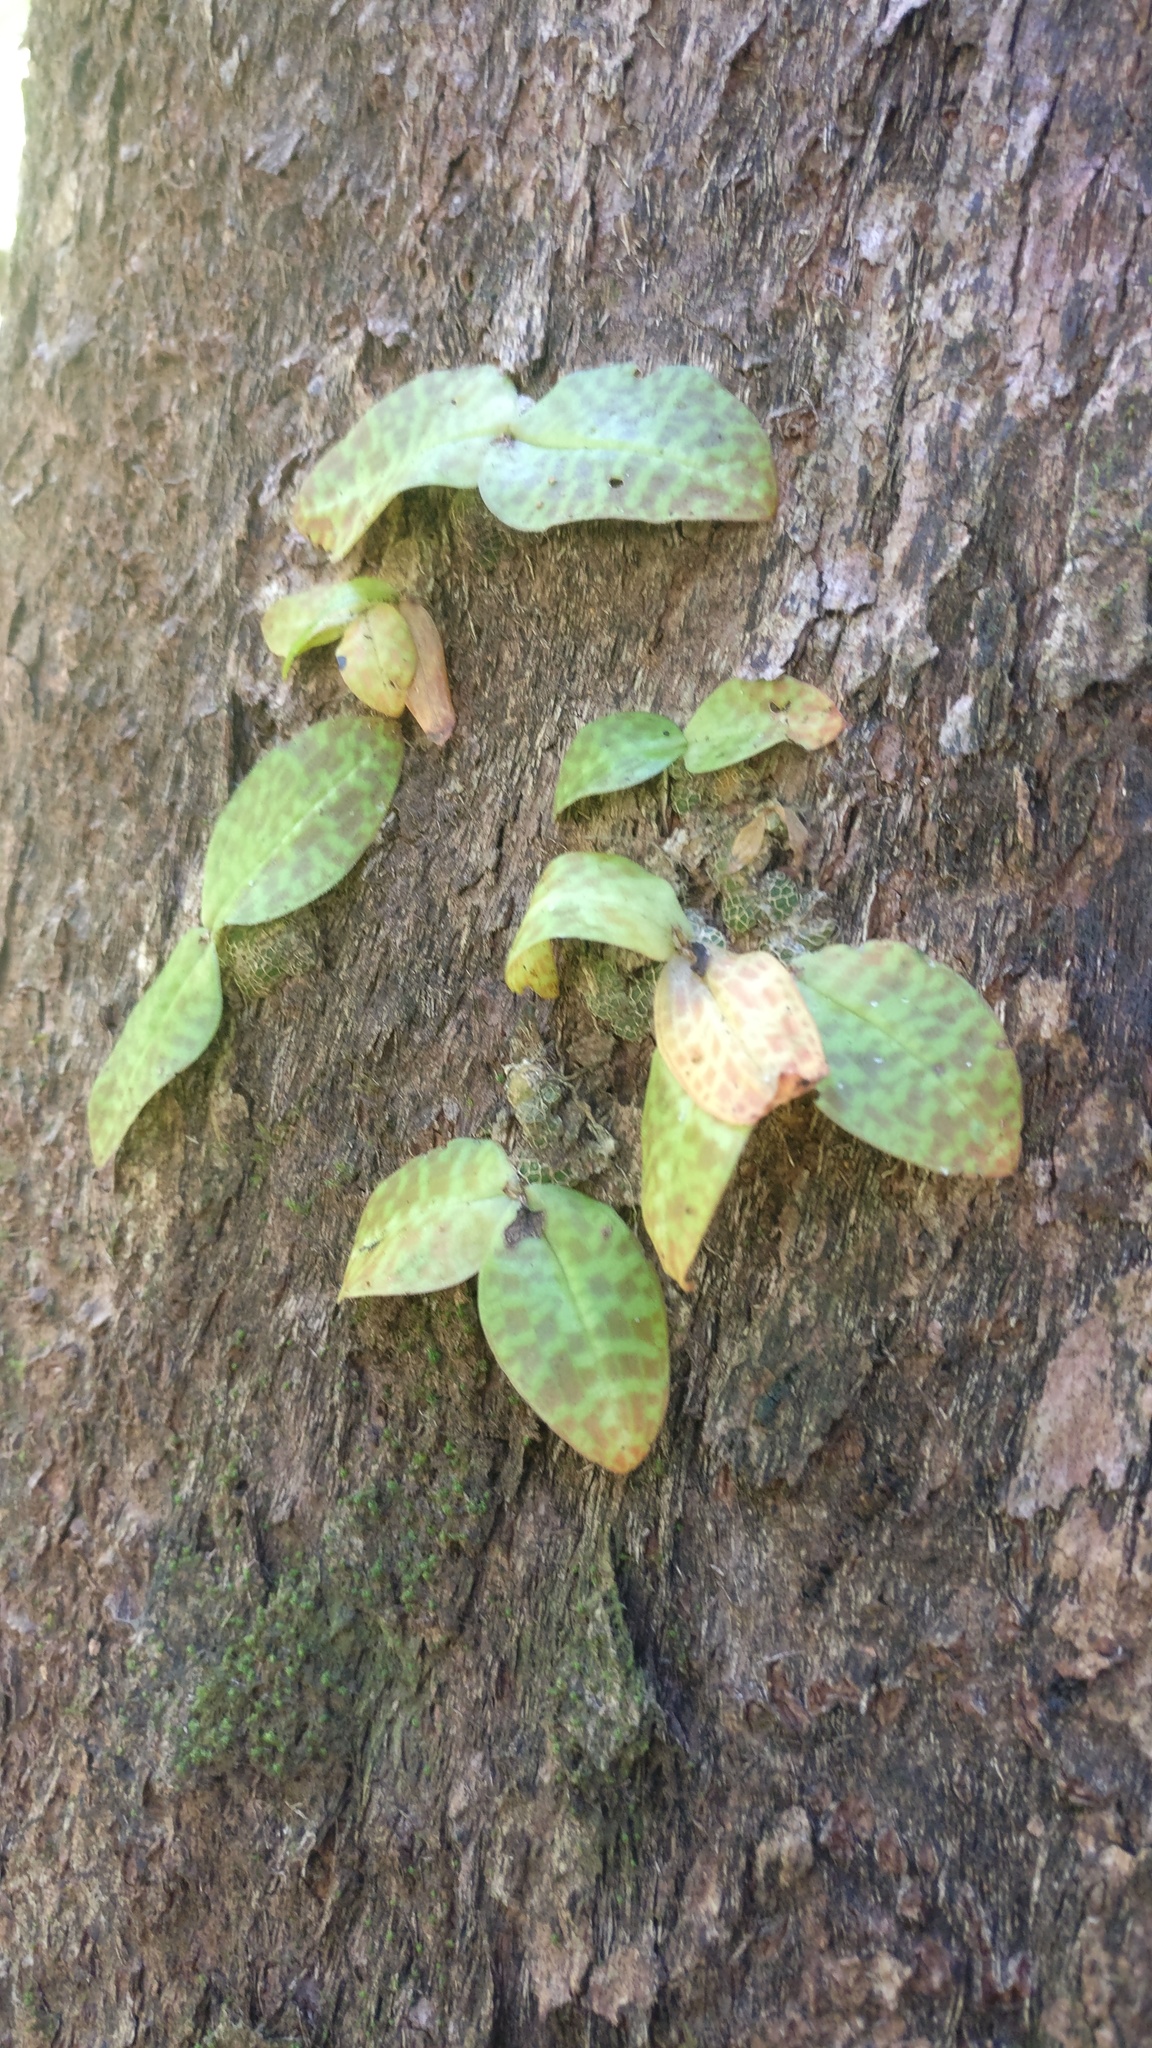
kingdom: Plantae
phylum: Tracheophyta
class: Liliopsida
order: Asparagales
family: Orchidaceae
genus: Porpax
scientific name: Porpax jerdoniana
